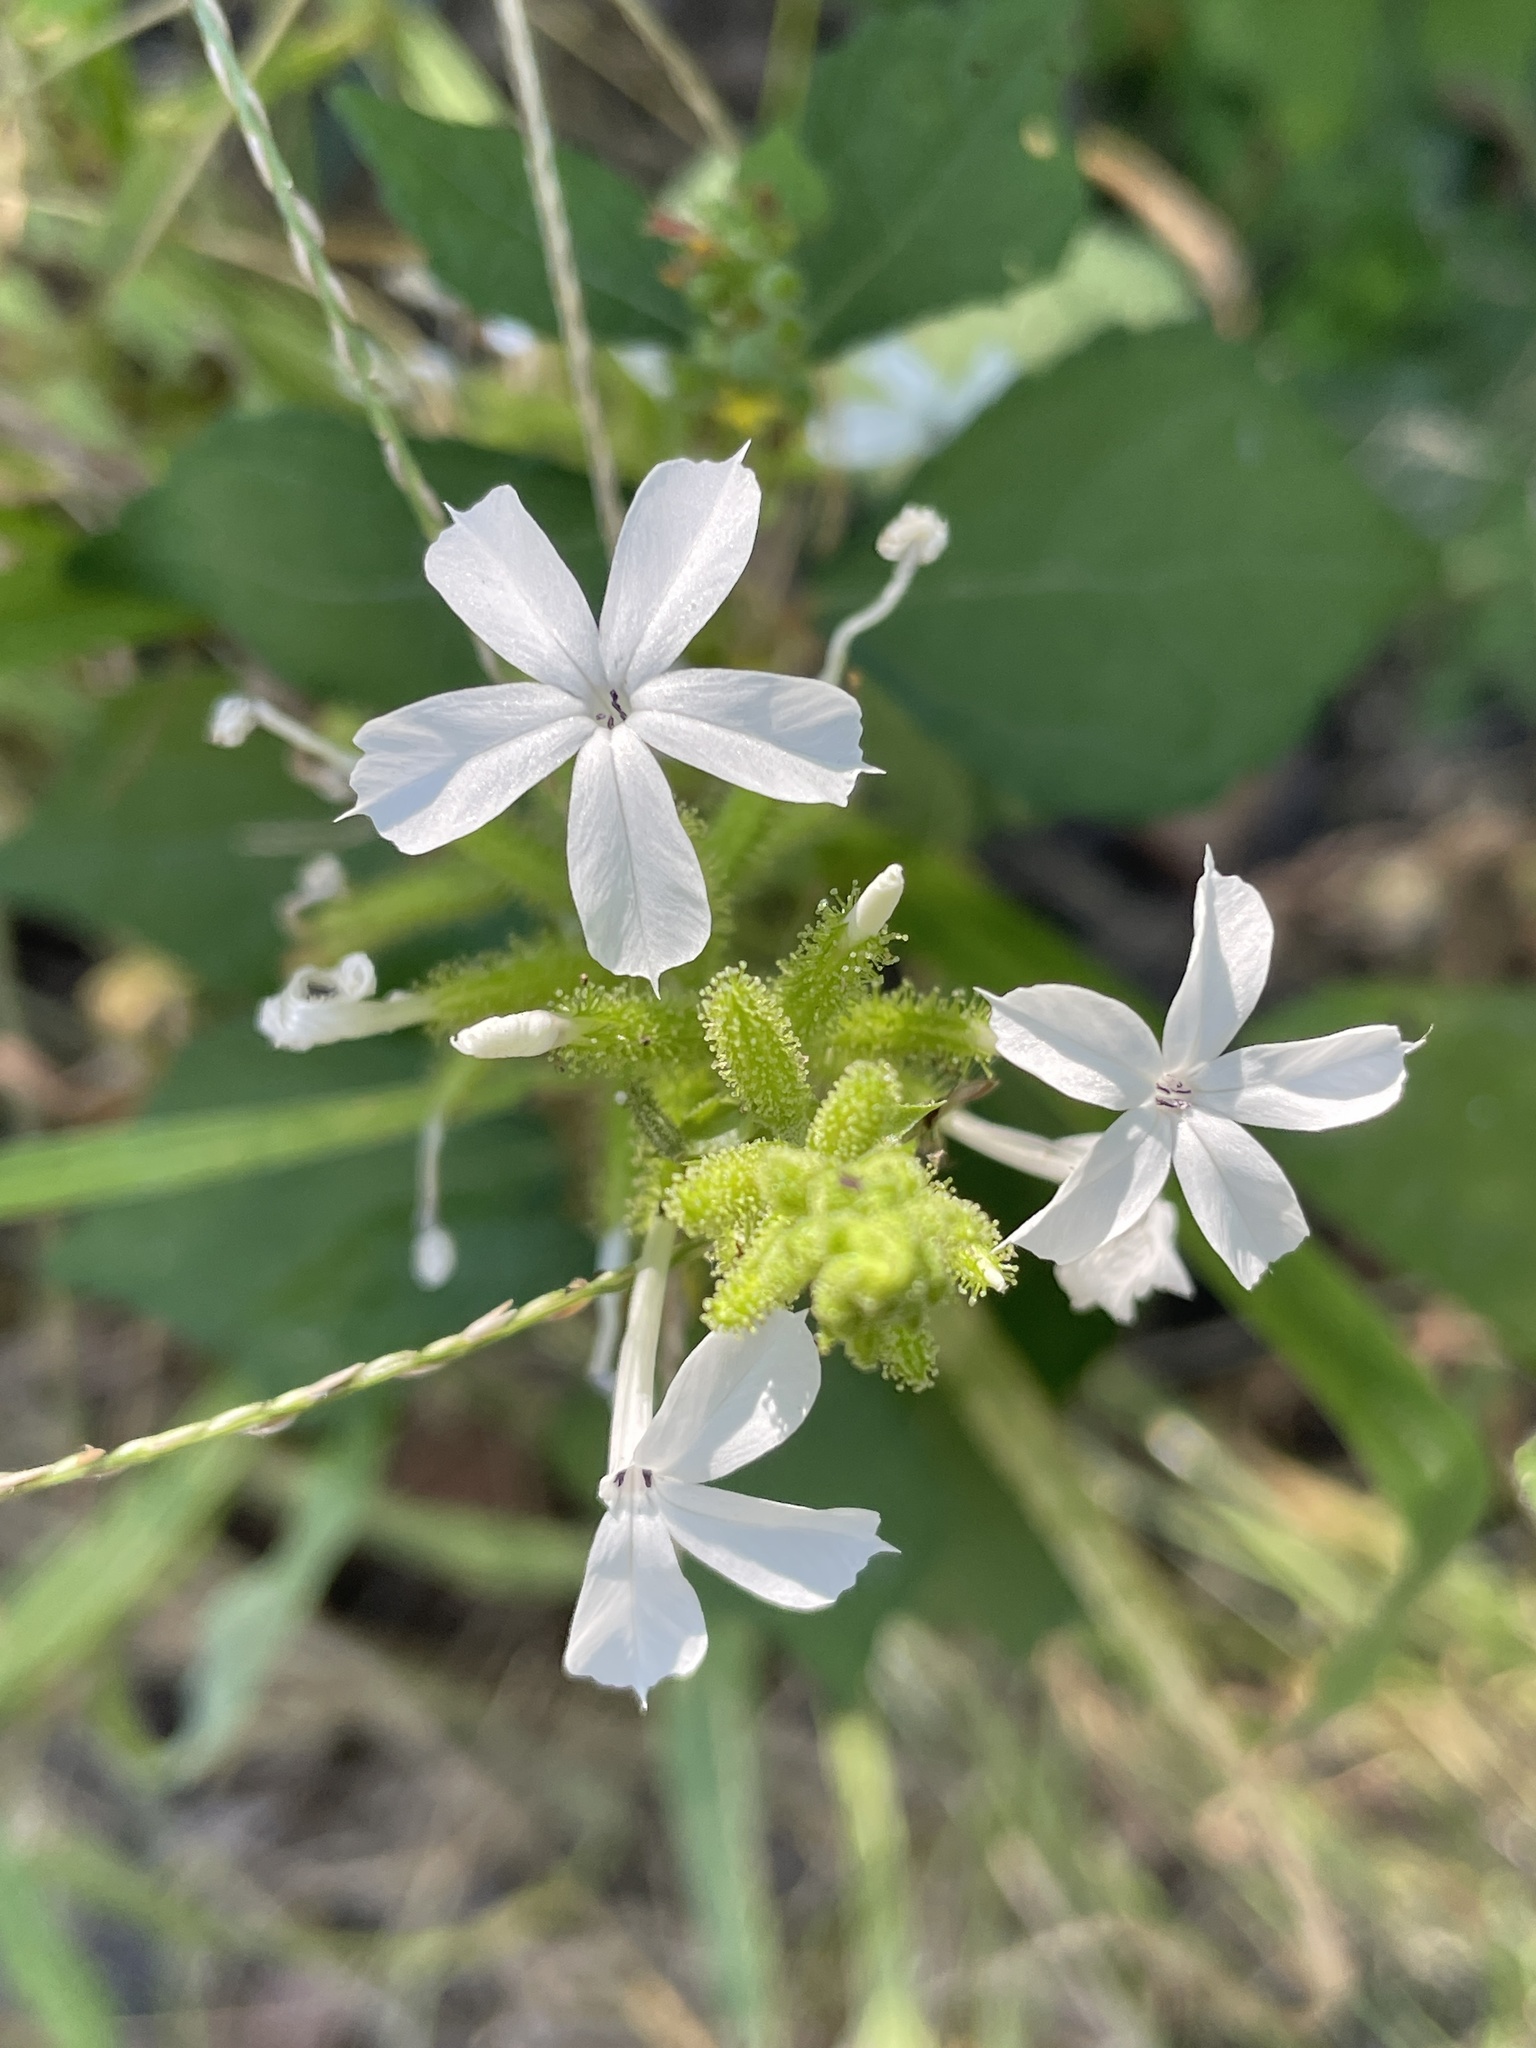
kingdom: Plantae
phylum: Tracheophyta
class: Magnoliopsida
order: Caryophyllales
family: Plumbaginaceae
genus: Plumbago
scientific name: Plumbago zeylanica
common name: Doctorbush
